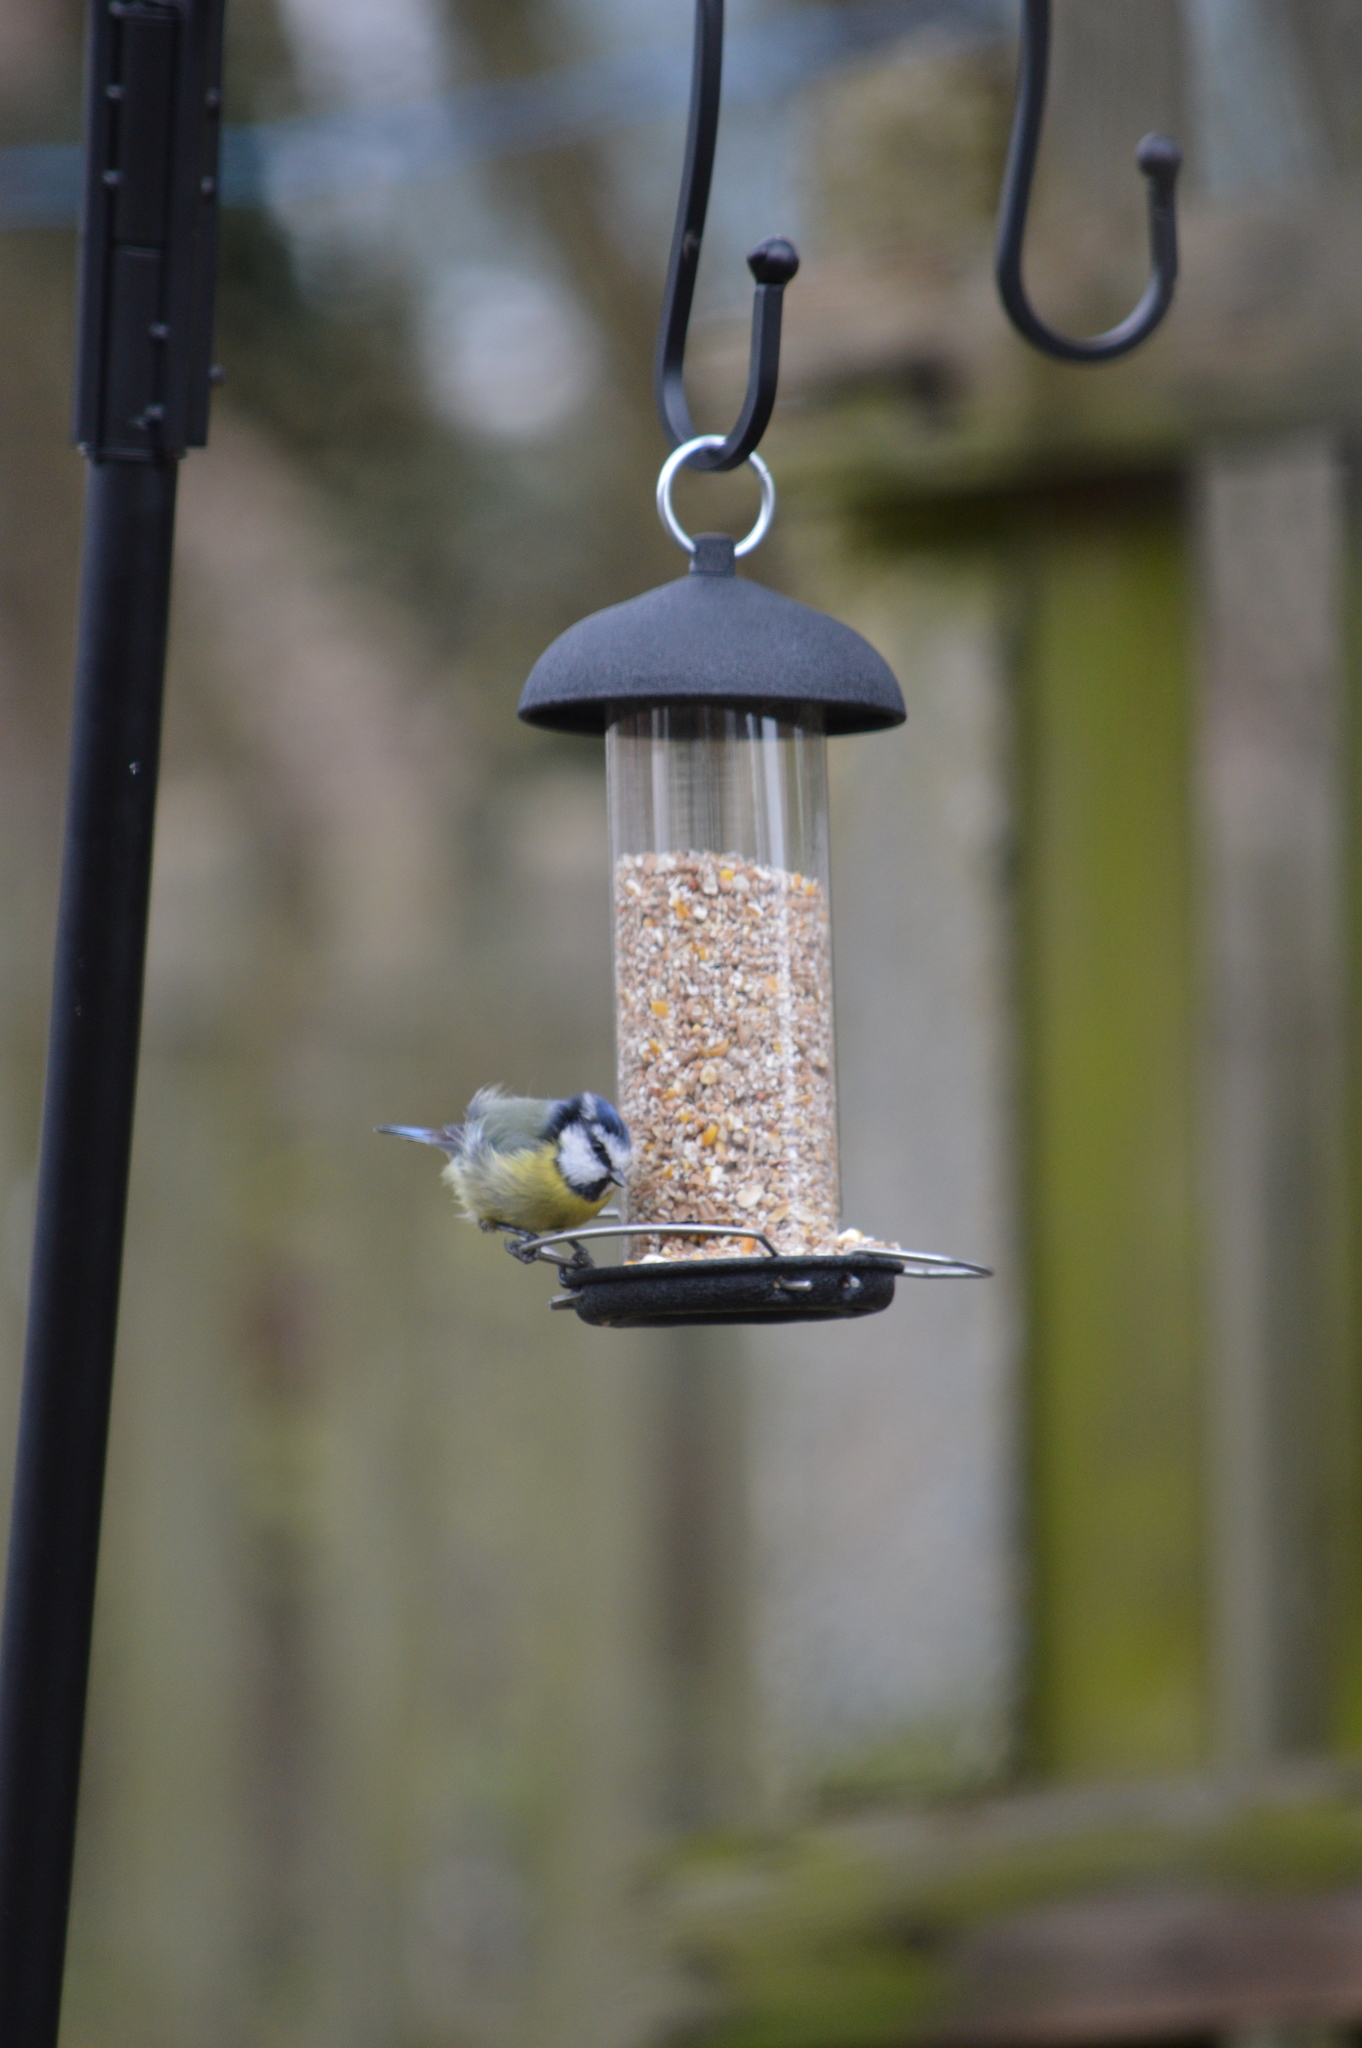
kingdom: Animalia
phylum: Chordata
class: Aves
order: Passeriformes
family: Paridae
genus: Cyanistes
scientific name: Cyanistes caeruleus
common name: Eurasian blue tit
